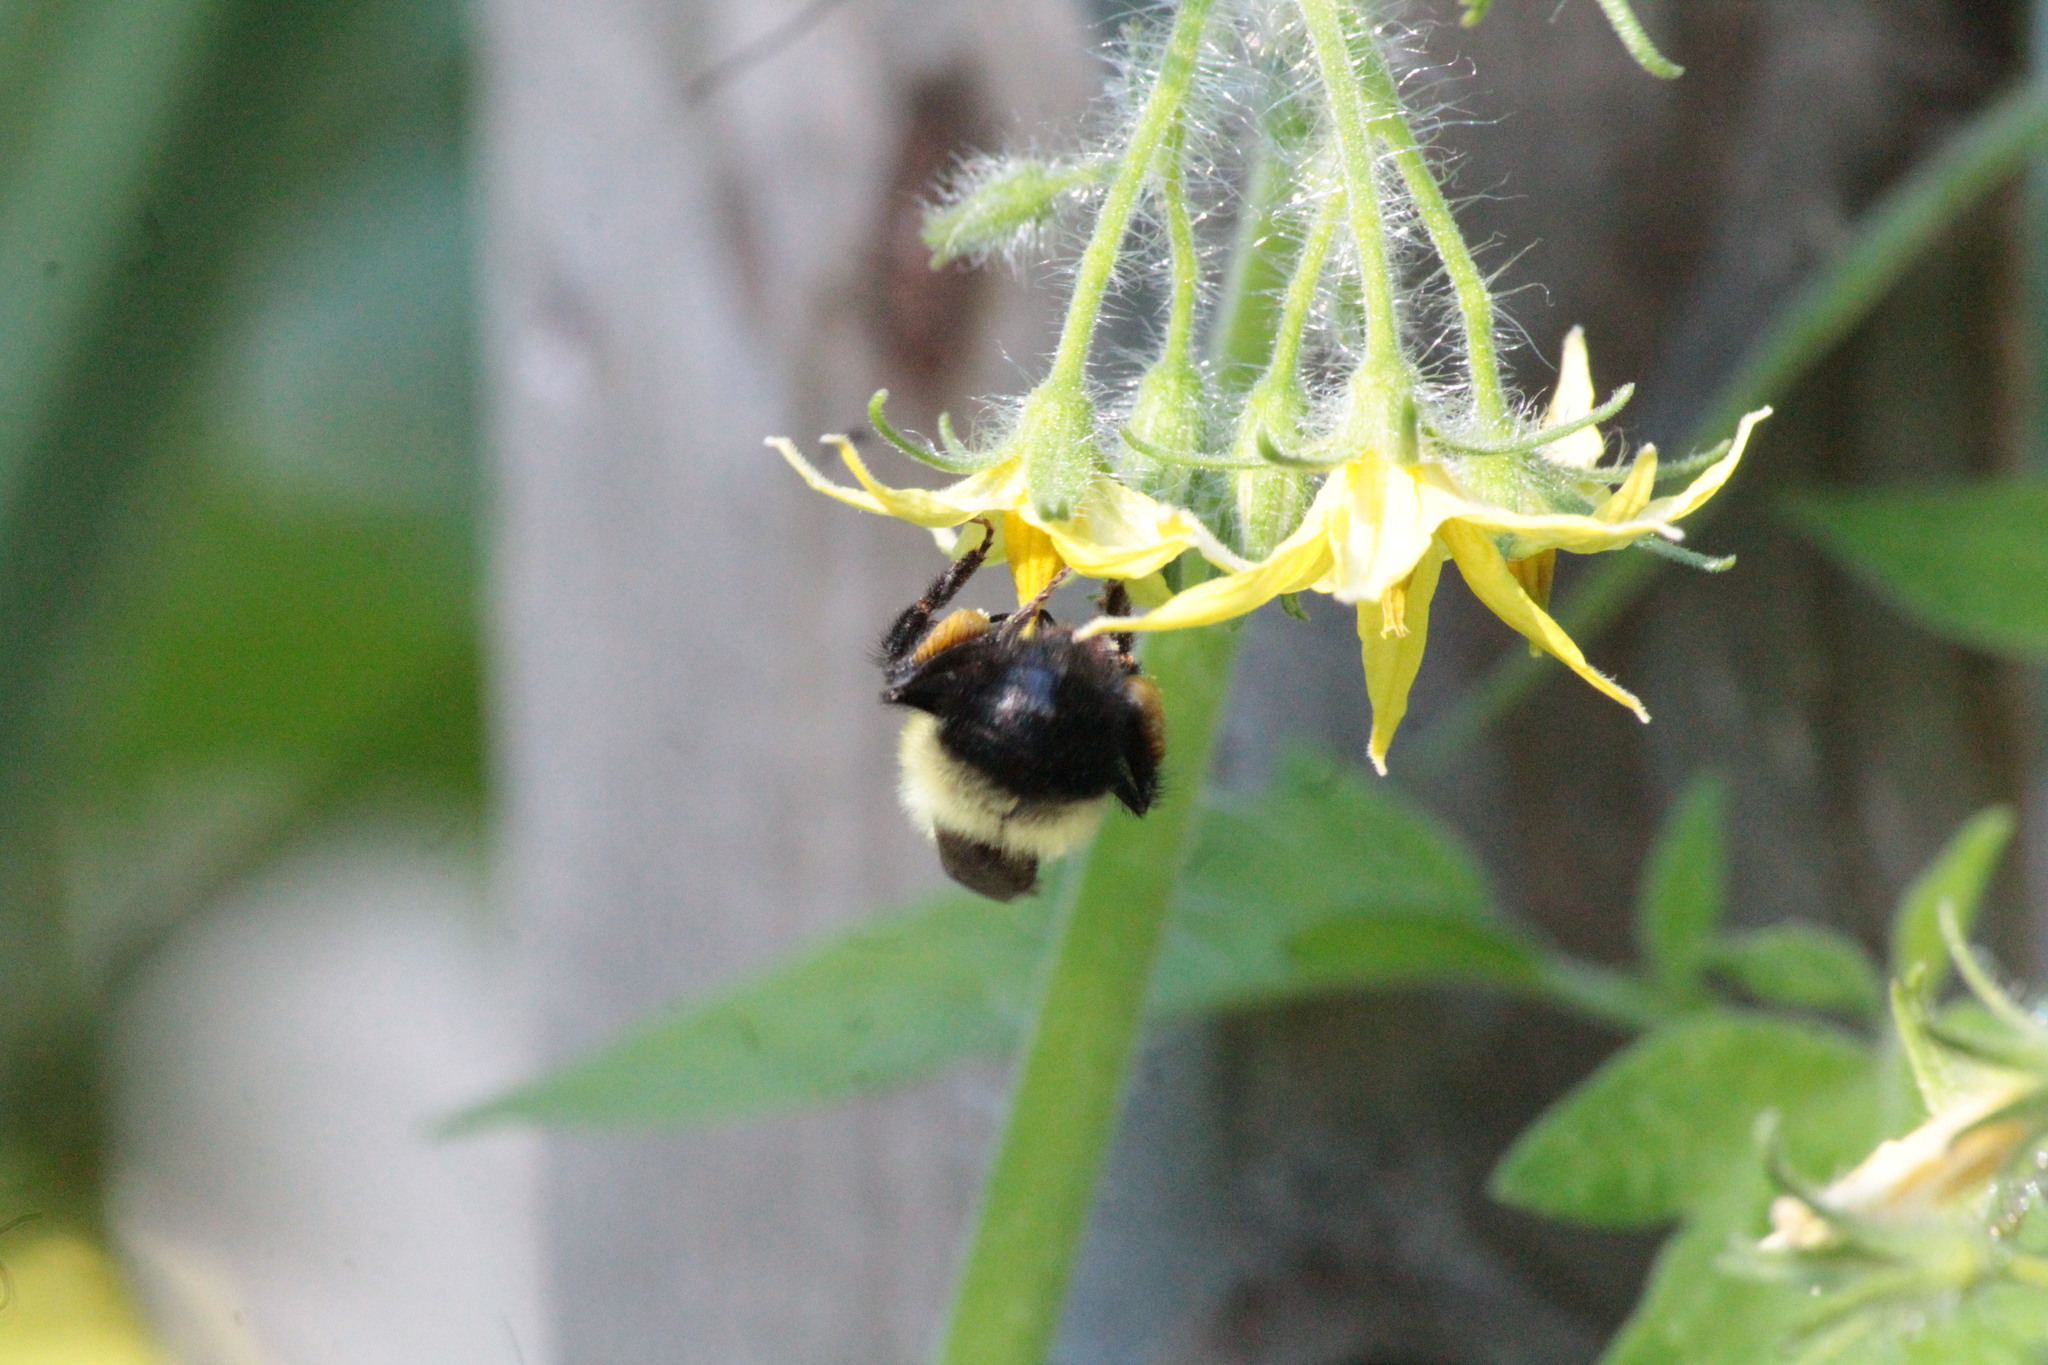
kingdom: Animalia
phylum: Arthropoda
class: Insecta
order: Hymenoptera
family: Apidae
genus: Pyrobombus
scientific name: Pyrobombus
